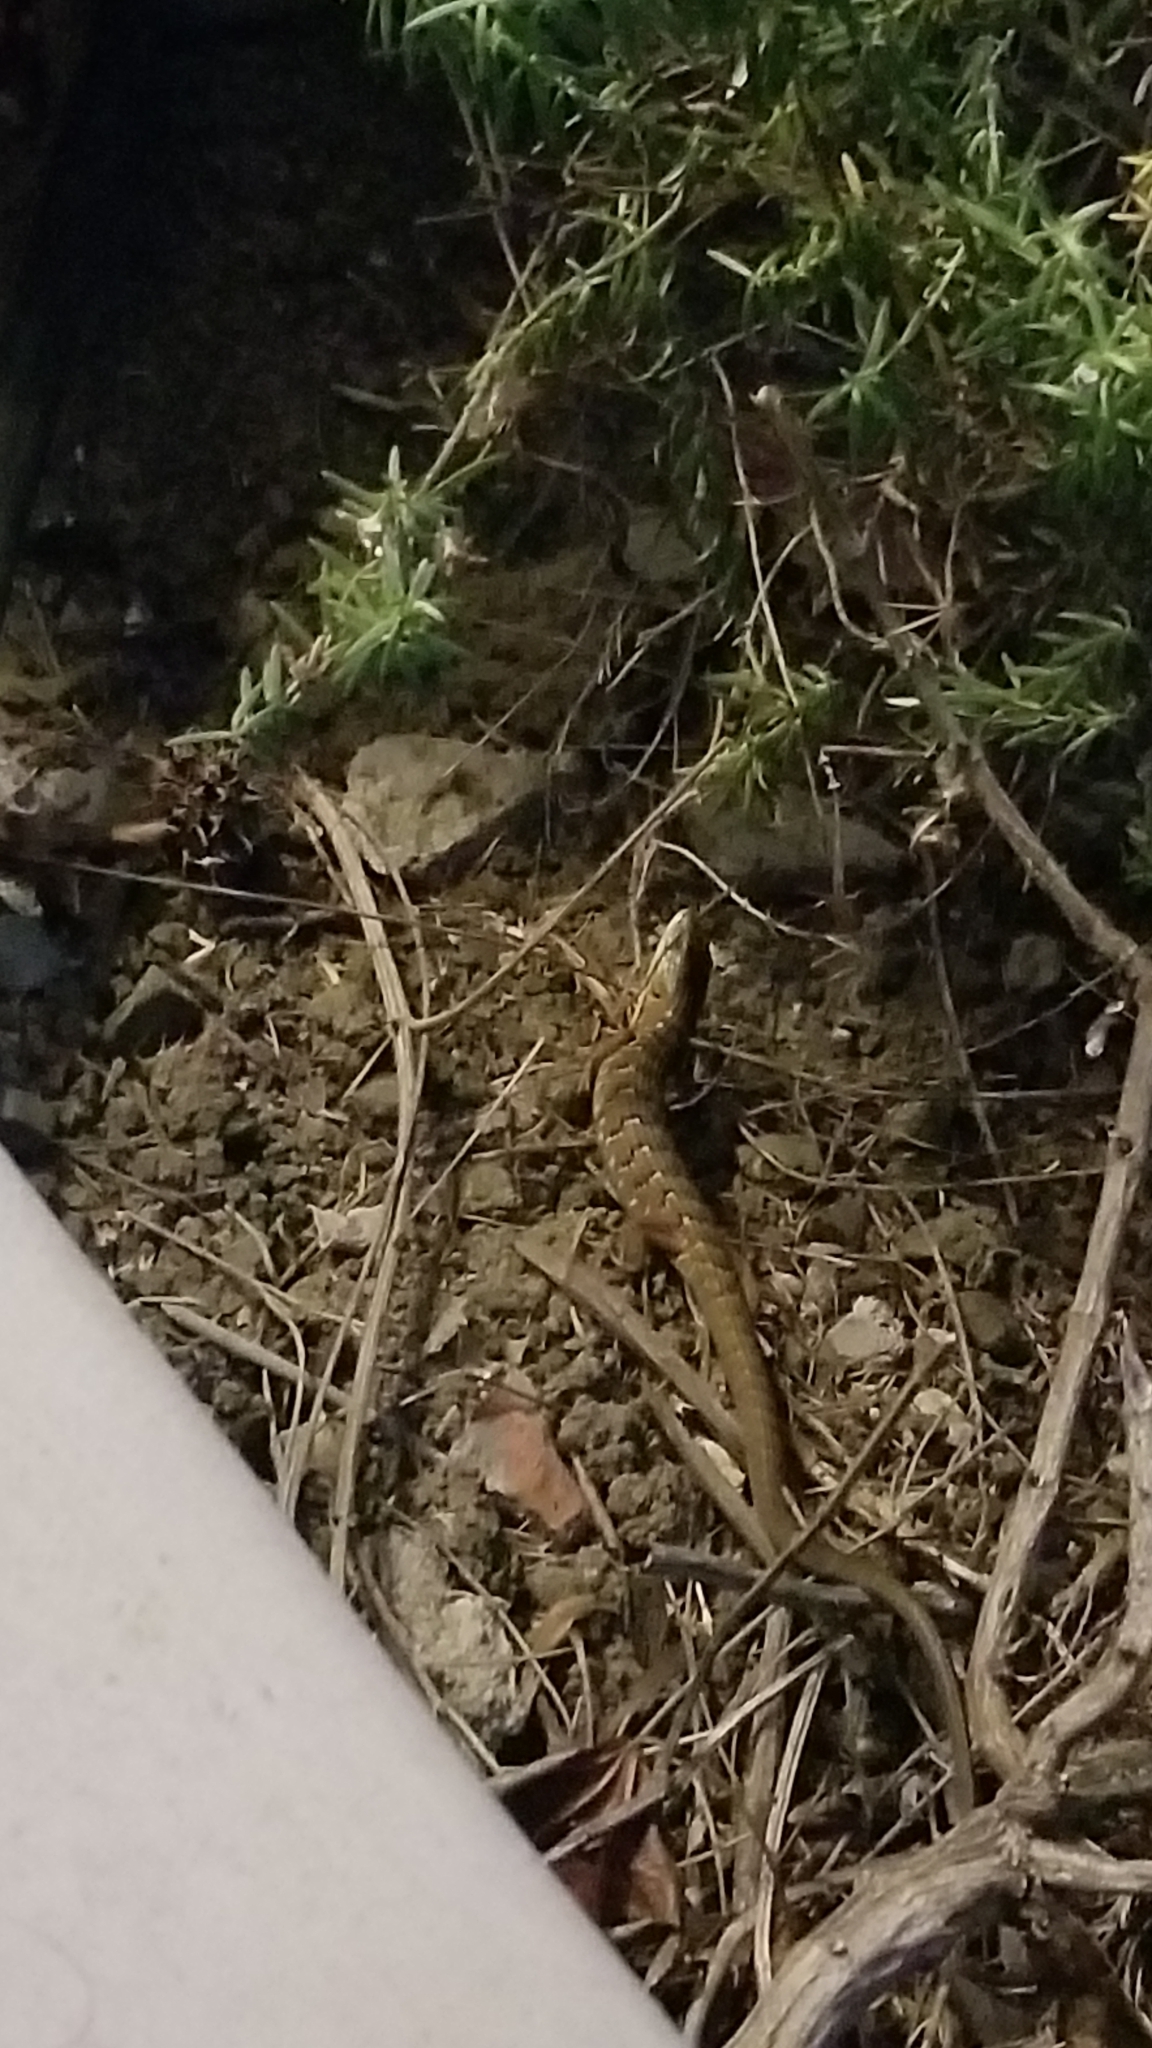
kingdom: Animalia
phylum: Chordata
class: Squamata
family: Anguidae
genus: Elgaria
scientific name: Elgaria multicarinata
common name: Southern alligator lizard
